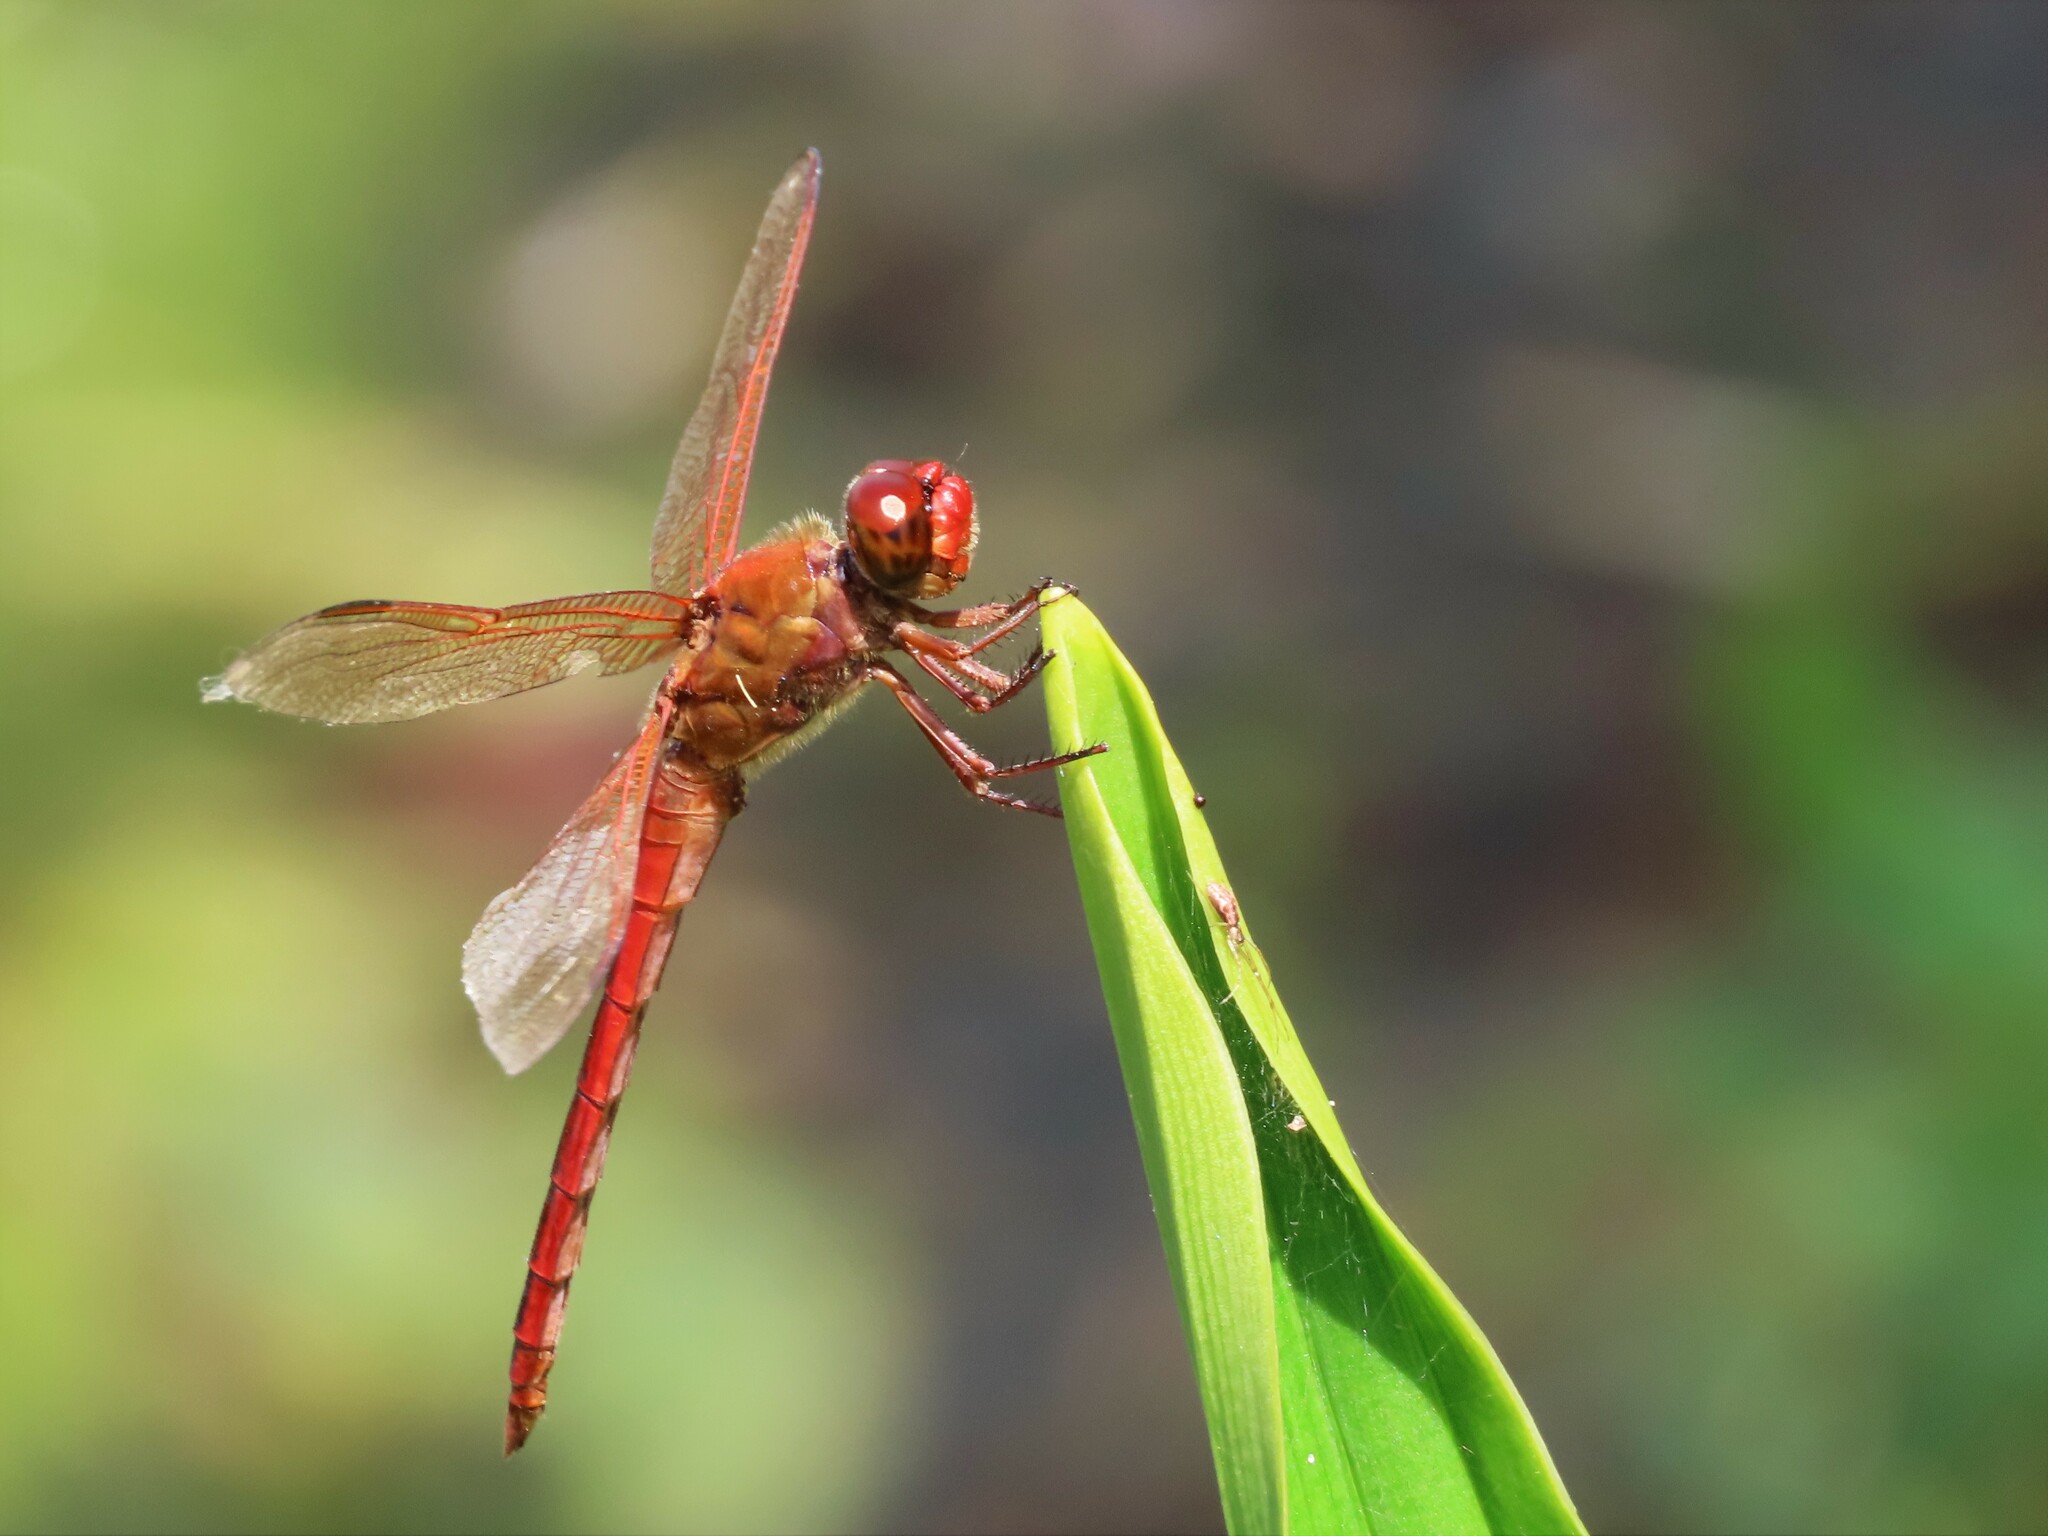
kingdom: Animalia
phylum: Arthropoda
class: Insecta
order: Odonata
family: Libellulidae
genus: Libellula
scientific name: Libellula needhami
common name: Needham's skimmer
